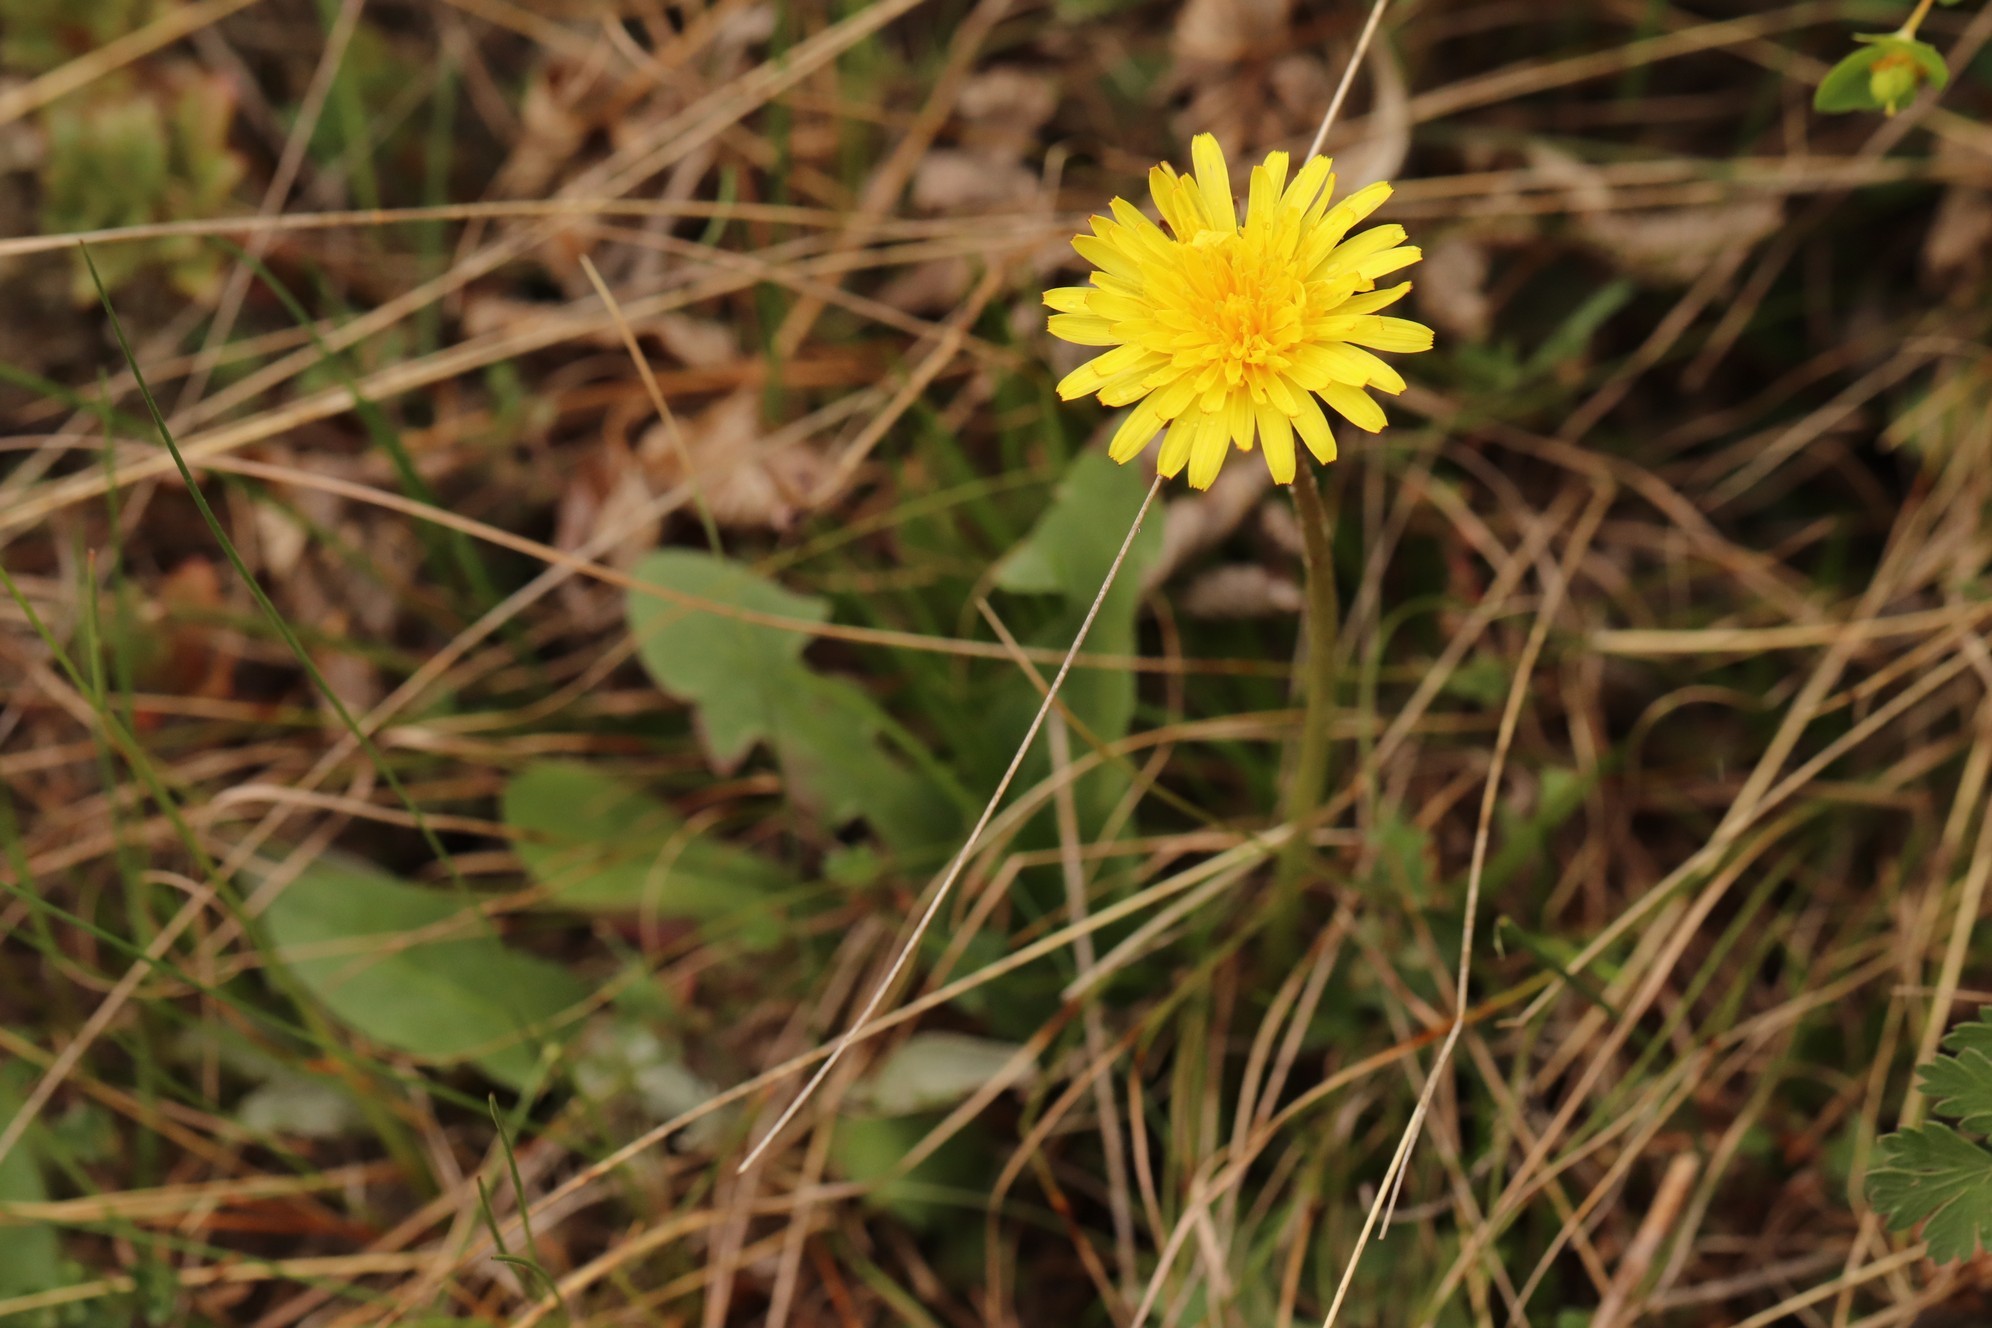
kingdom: Plantae
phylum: Tracheophyta
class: Magnoliopsida
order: Asterales
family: Asteraceae
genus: Taraxacum
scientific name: Taraxacum officinale
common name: Common dandelion
